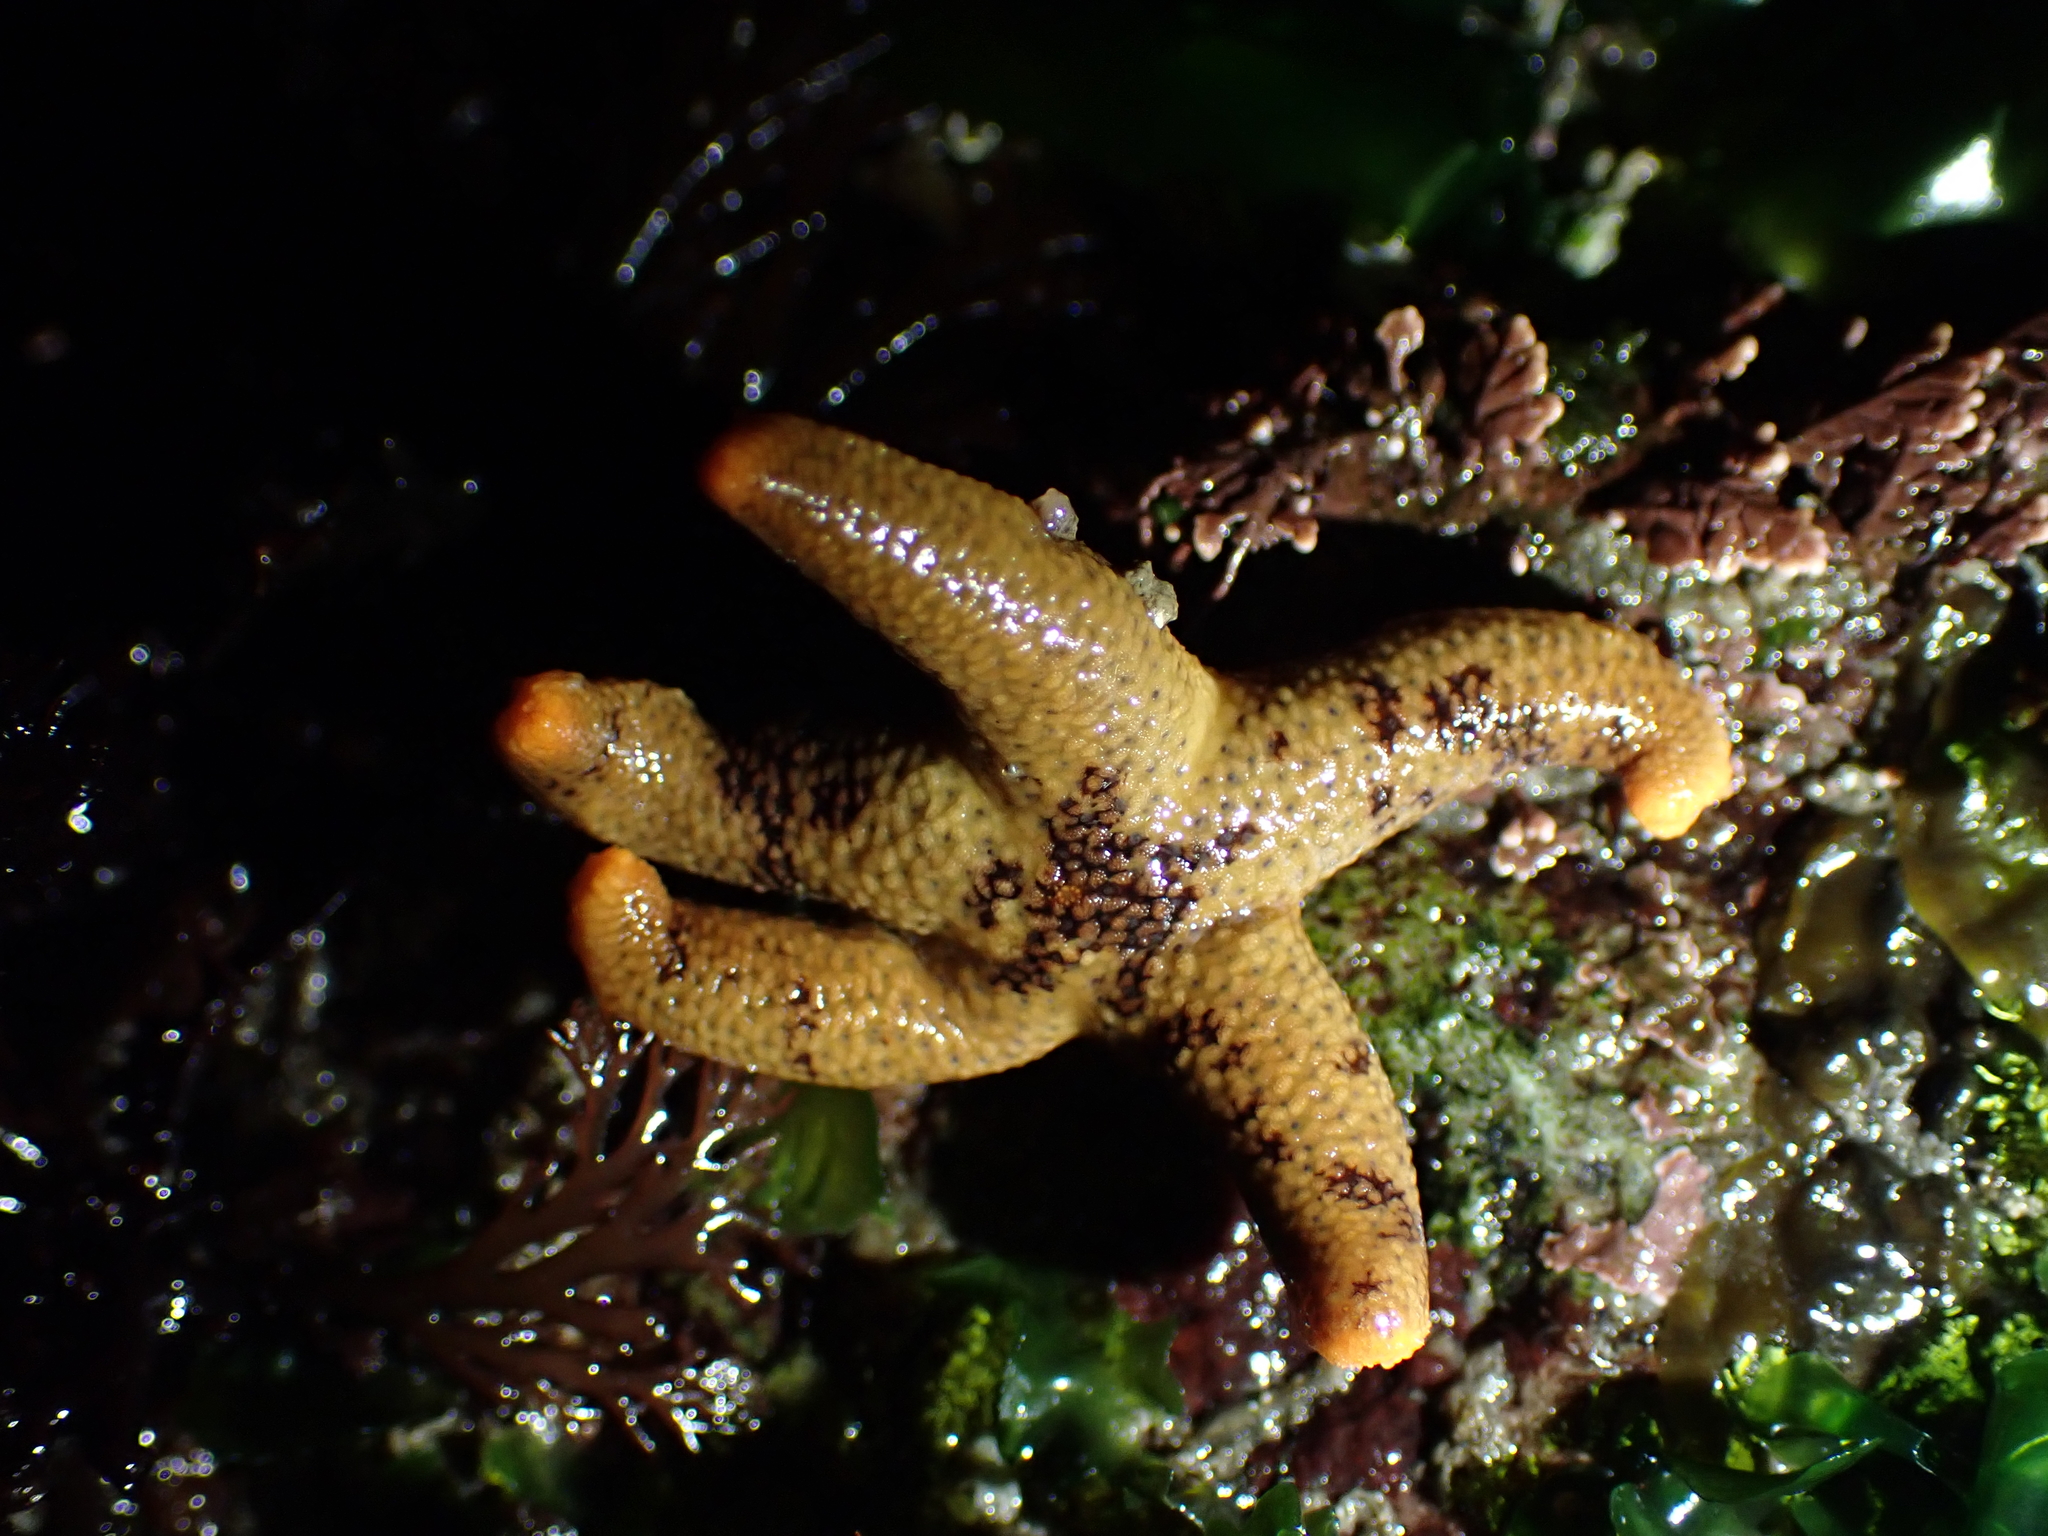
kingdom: Animalia
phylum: Echinodermata
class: Asteroidea
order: Spinulosida
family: Echinasteridae
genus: Henricia
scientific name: Henricia pumila
